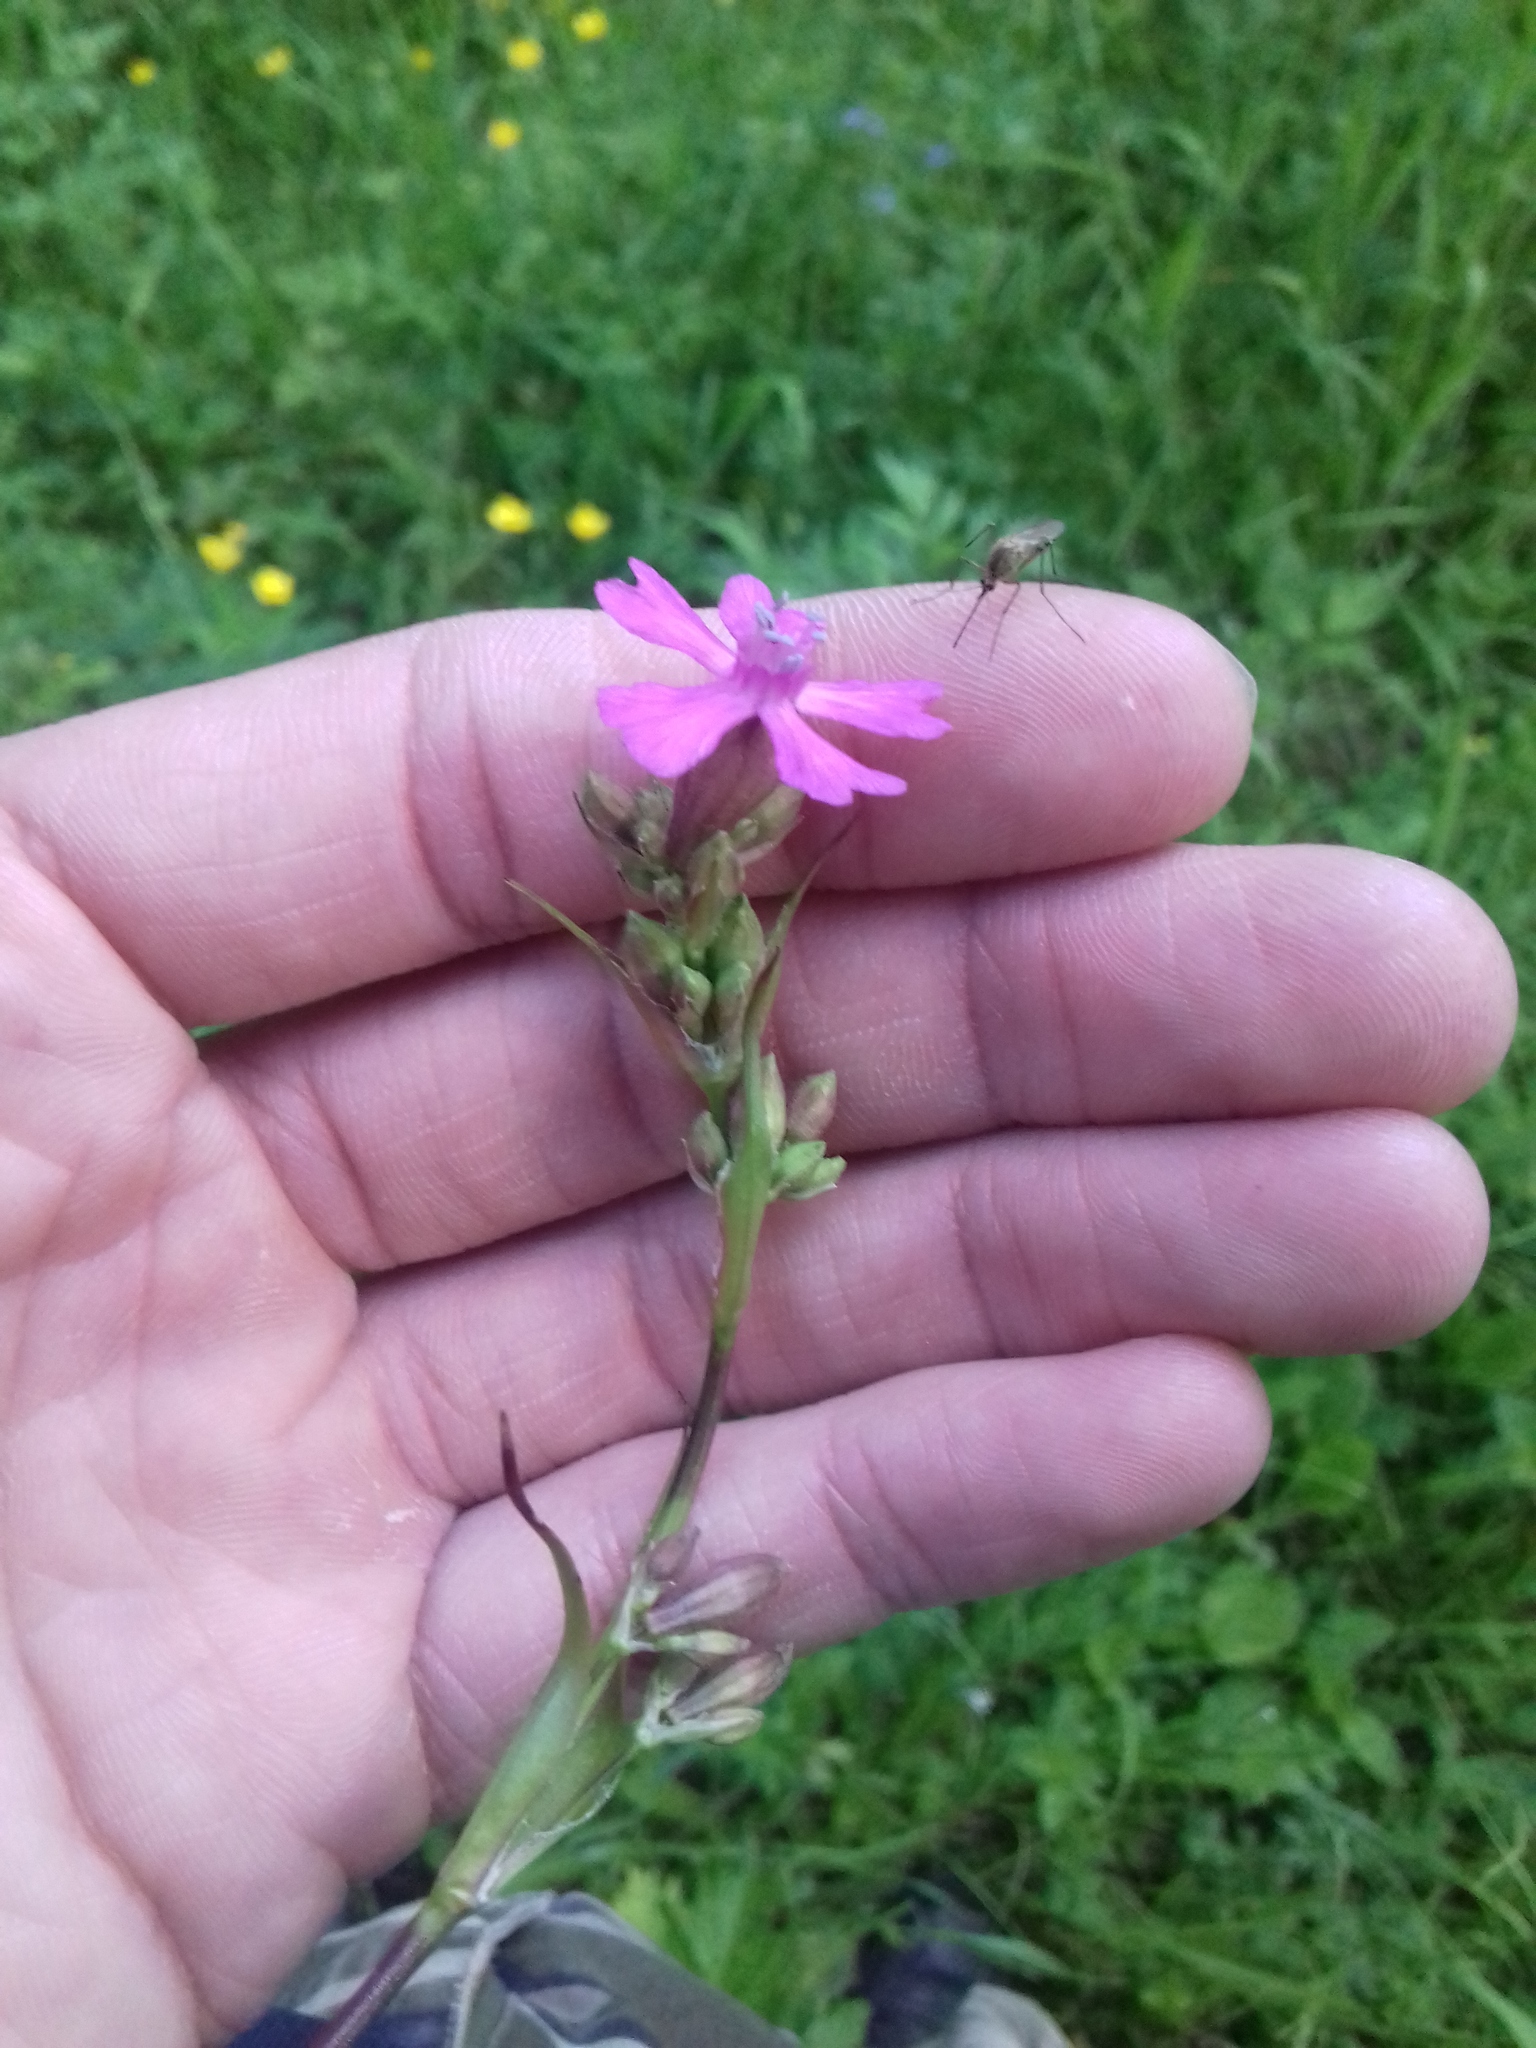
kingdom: Plantae
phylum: Tracheophyta
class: Magnoliopsida
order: Caryophyllales
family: Caryophyllaceae
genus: Viscaria
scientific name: Viscaria vulgaris
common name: Clammy campion
